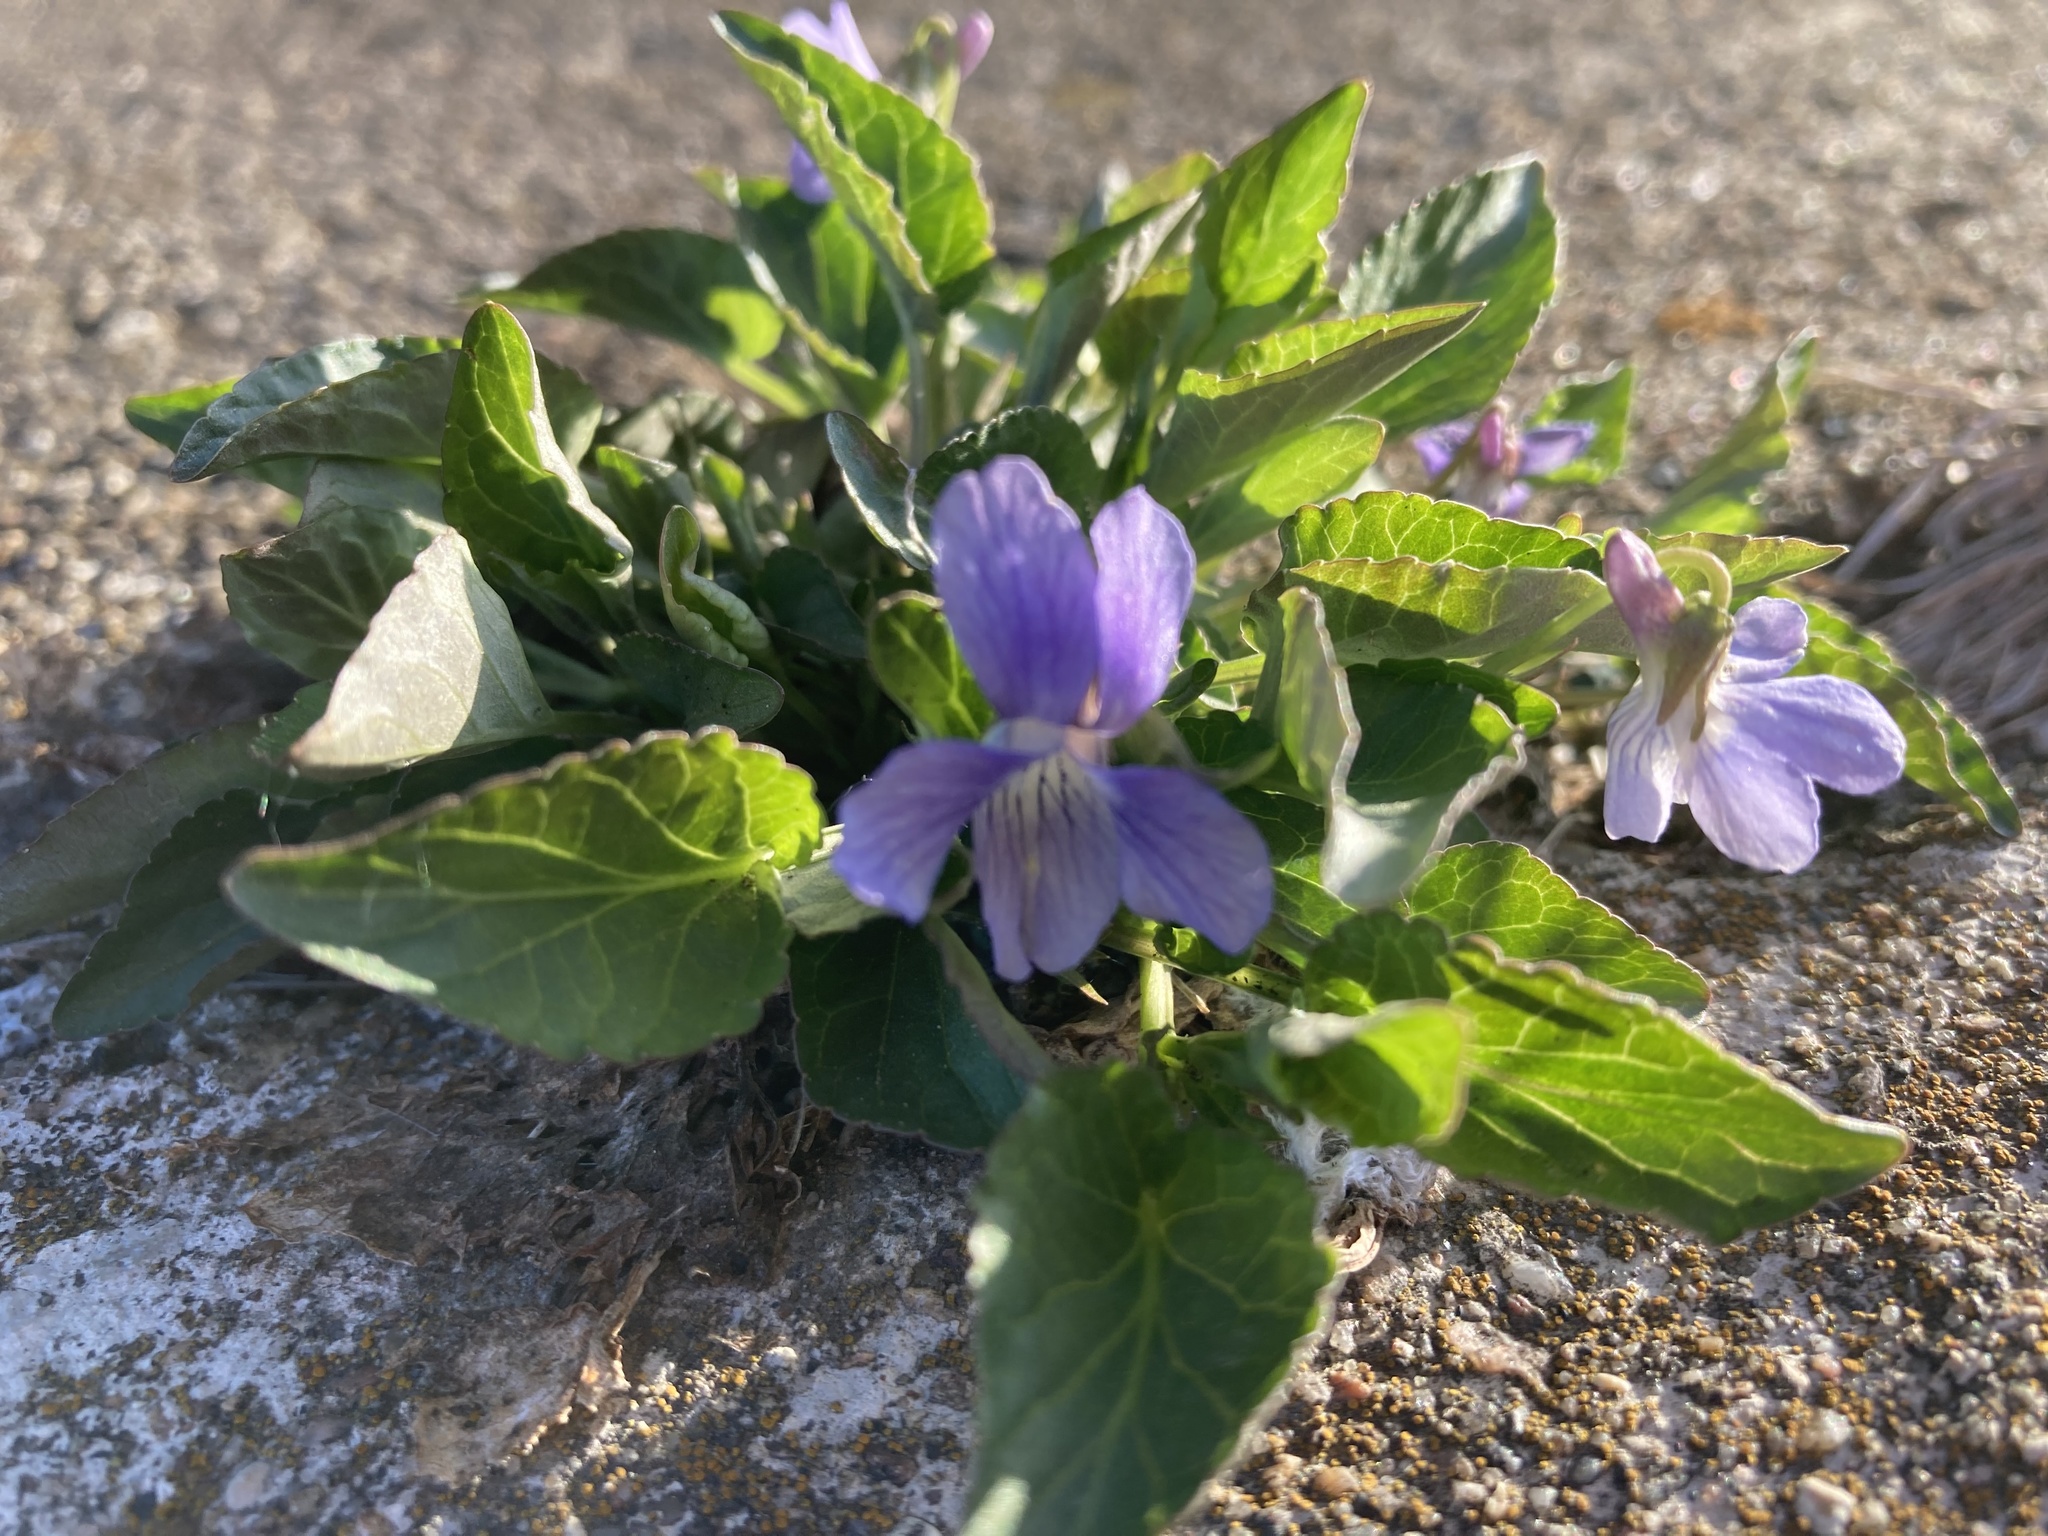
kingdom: Plantae
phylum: Tracheophyta
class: Magnoliopsida
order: Malpighiales
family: Violaceae
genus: Viola
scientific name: Viola adunca
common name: Sand violet
